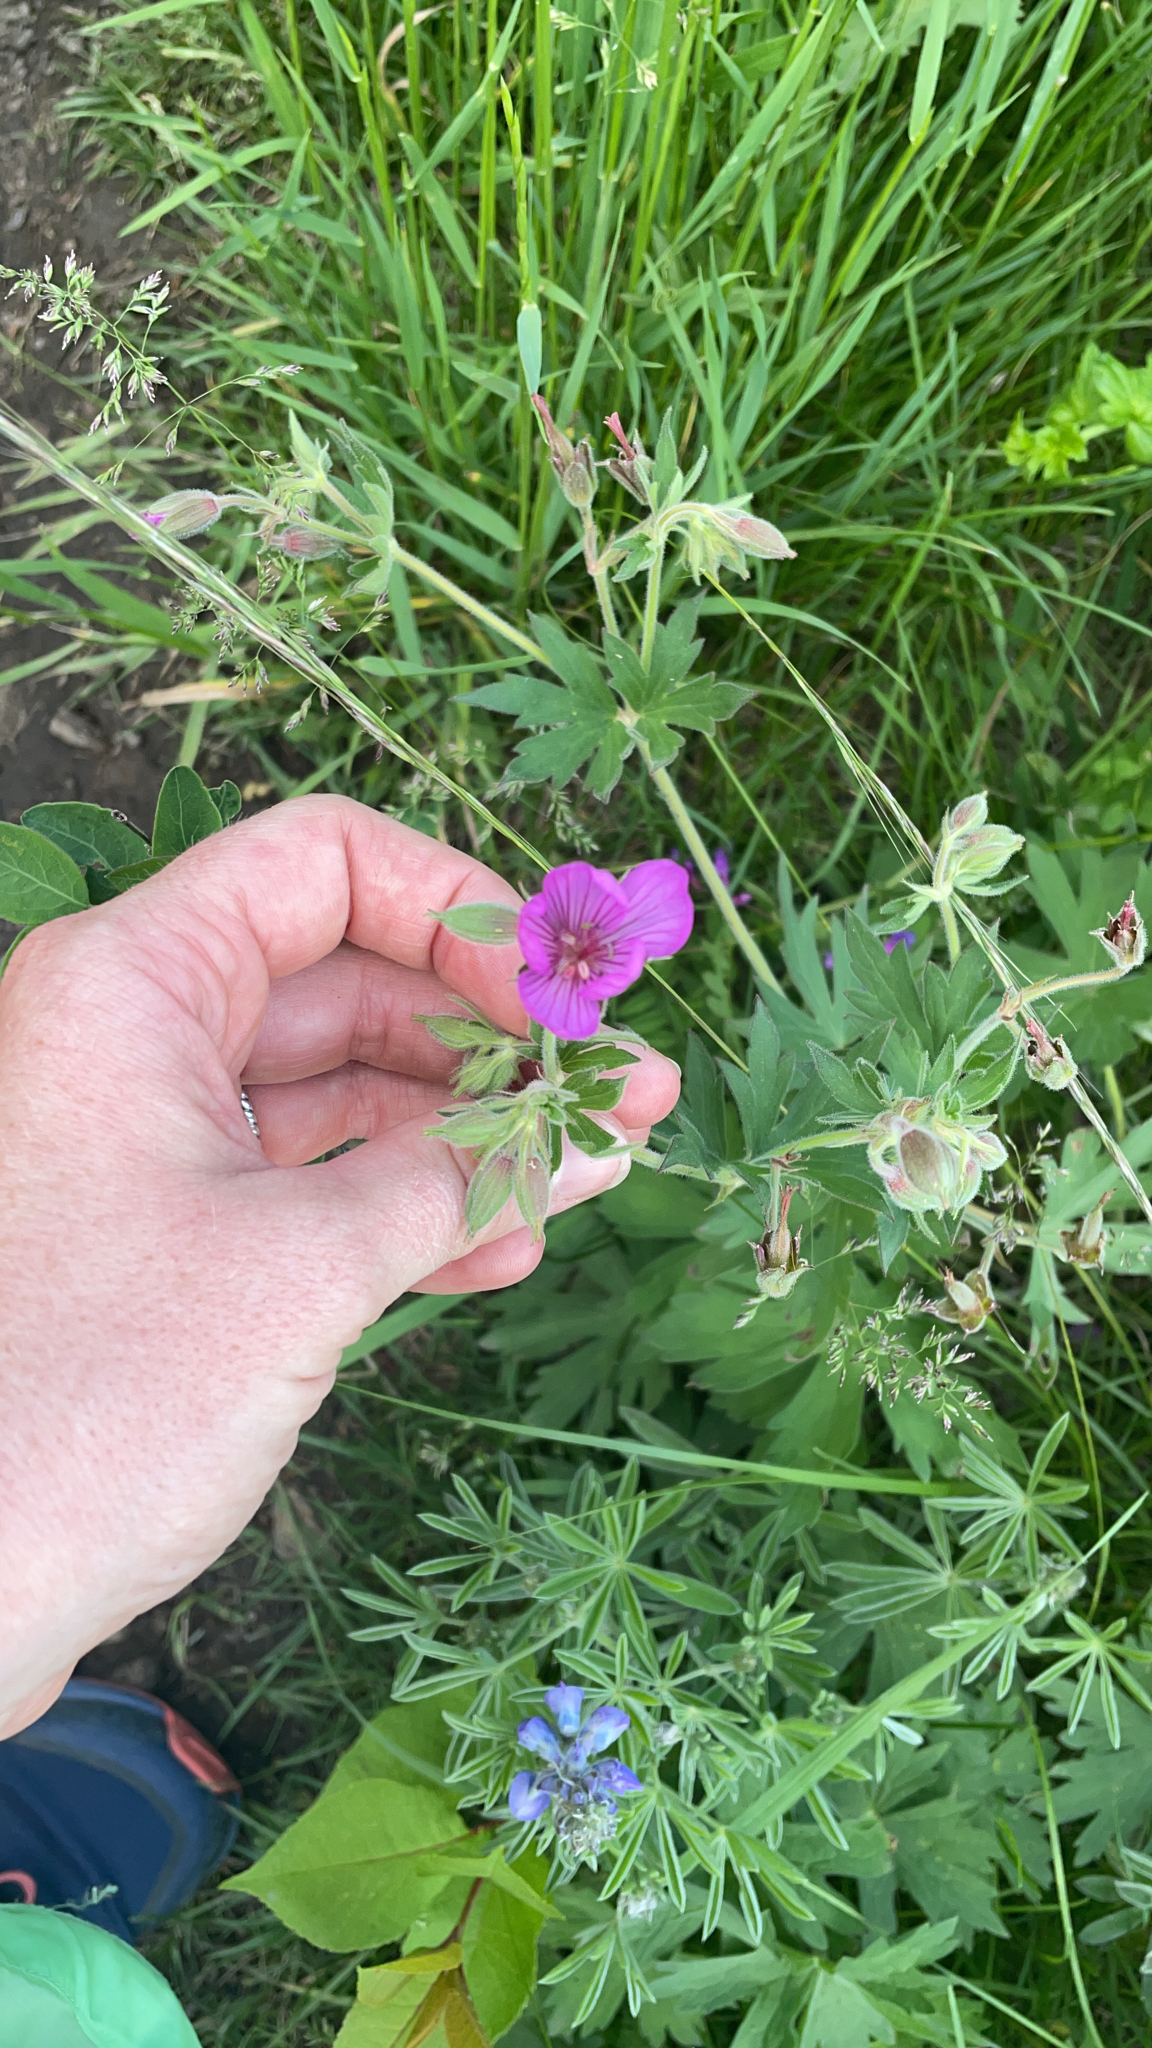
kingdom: Plantae
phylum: Tracheophyta
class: Magnoliopsida
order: Geraniales
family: Geraniaceae
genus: Geranium
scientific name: Geranium viscosissimum
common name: Purple geranium
